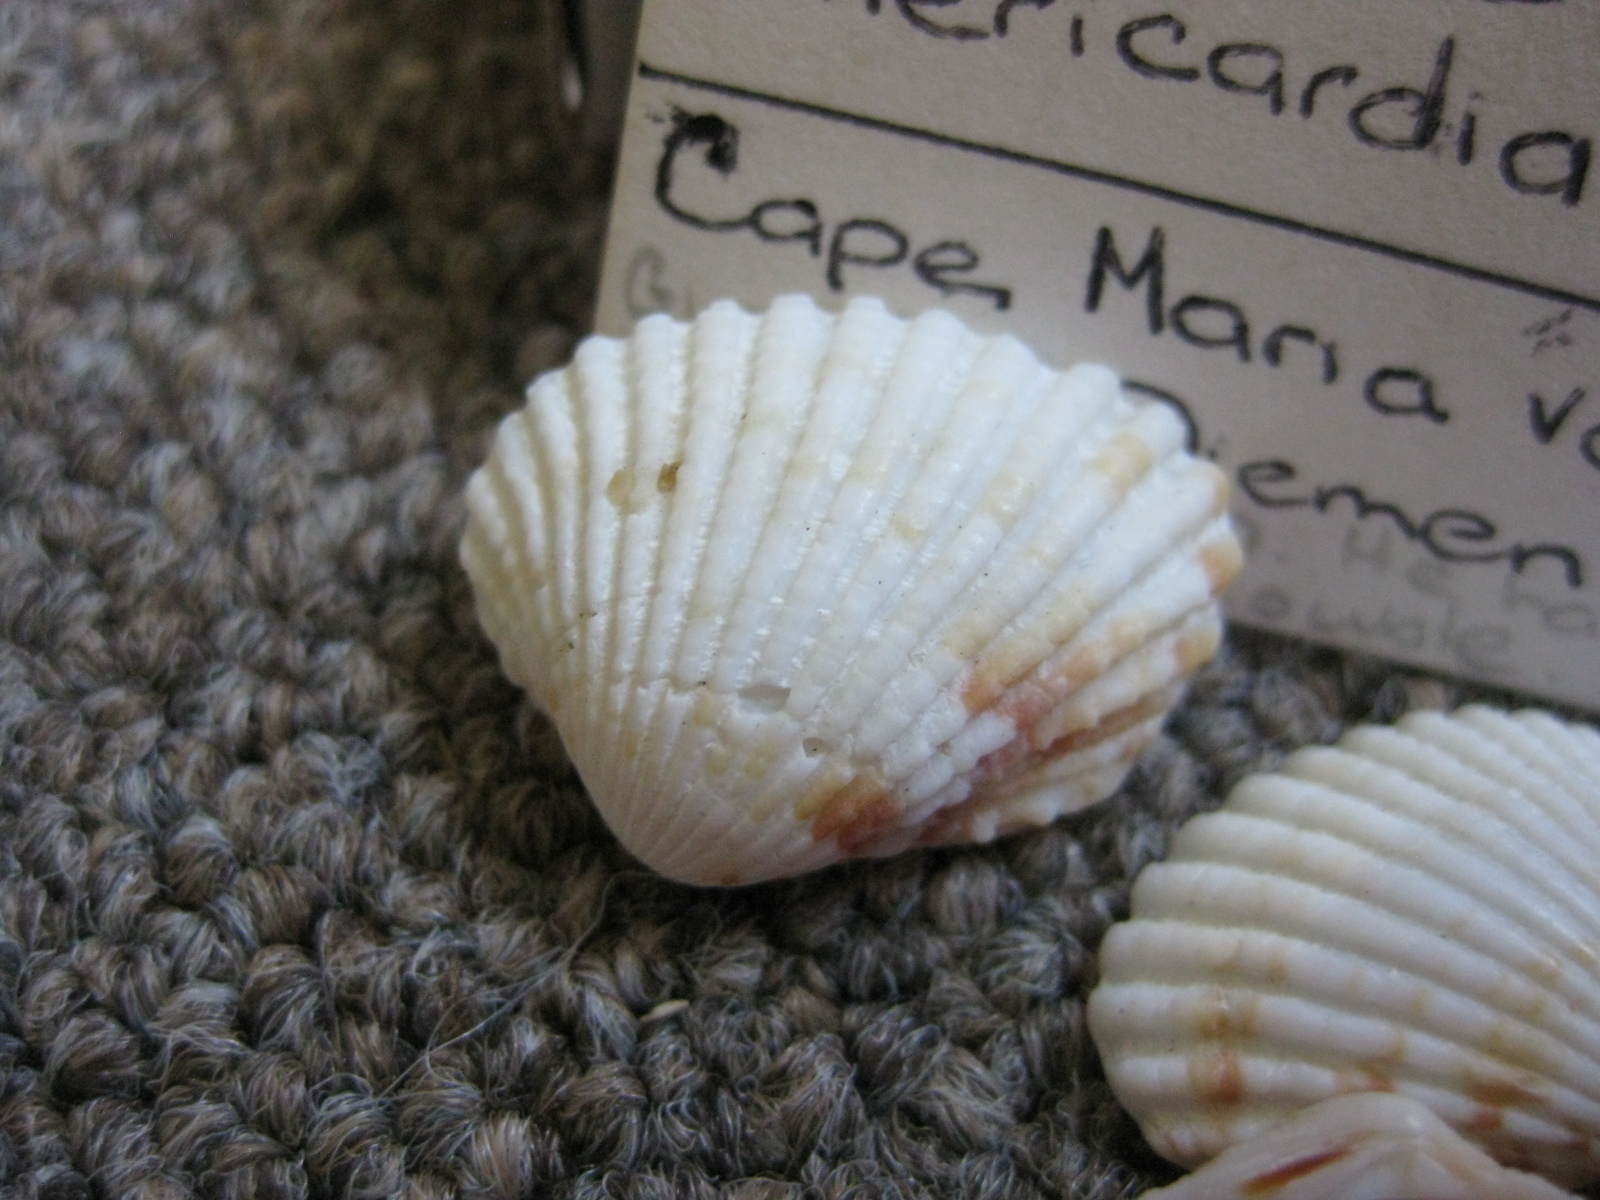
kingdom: Animalia
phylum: Mollusca
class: Bivalvia
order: Carditida
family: Carditidae
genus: Purpurocardia
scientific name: Purpurocardia reinga
